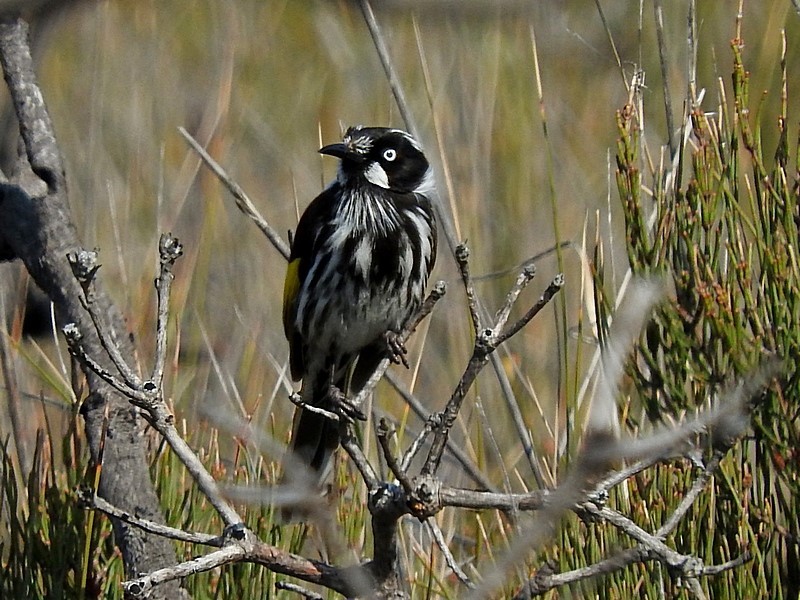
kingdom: Animalia
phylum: Chordata
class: Aves
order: Passeriformes
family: Meliphagidae
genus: Phylidonyris
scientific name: Phylidonyris novaehollandiae
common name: New holland honeyeater
